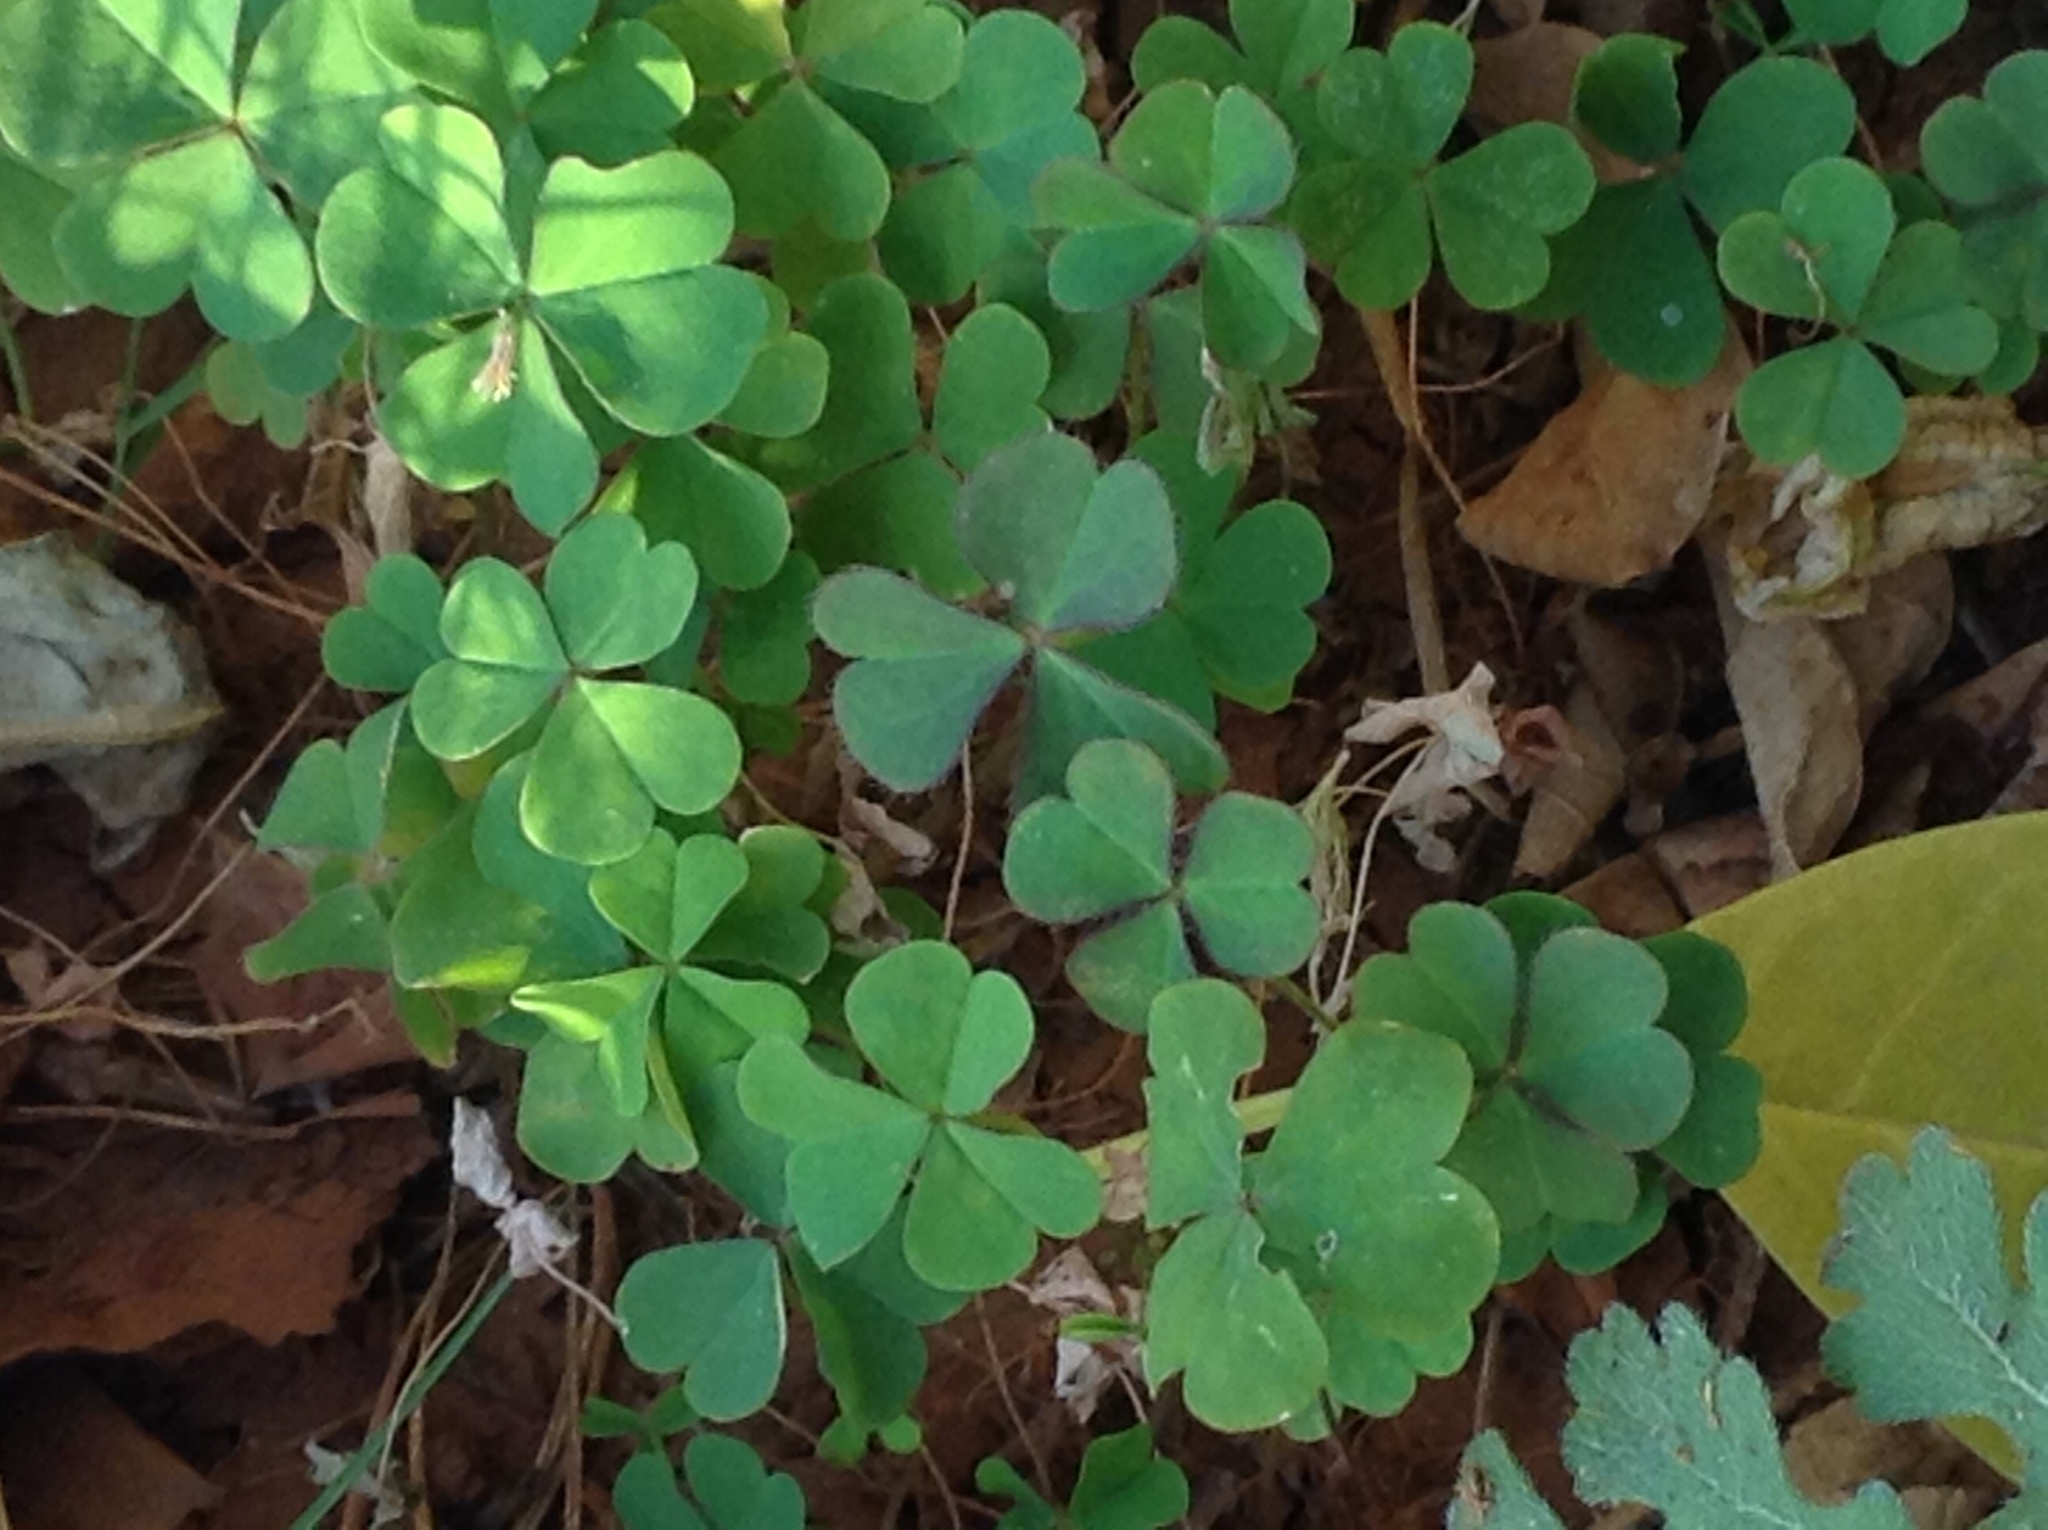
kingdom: Plantae
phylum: Tracheophyta
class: Magnoliopsida
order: Oxalidales
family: Oxalidaceae
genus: Oxalis
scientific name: Oxalis corniculata
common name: Procumbent yellow-sorrel
